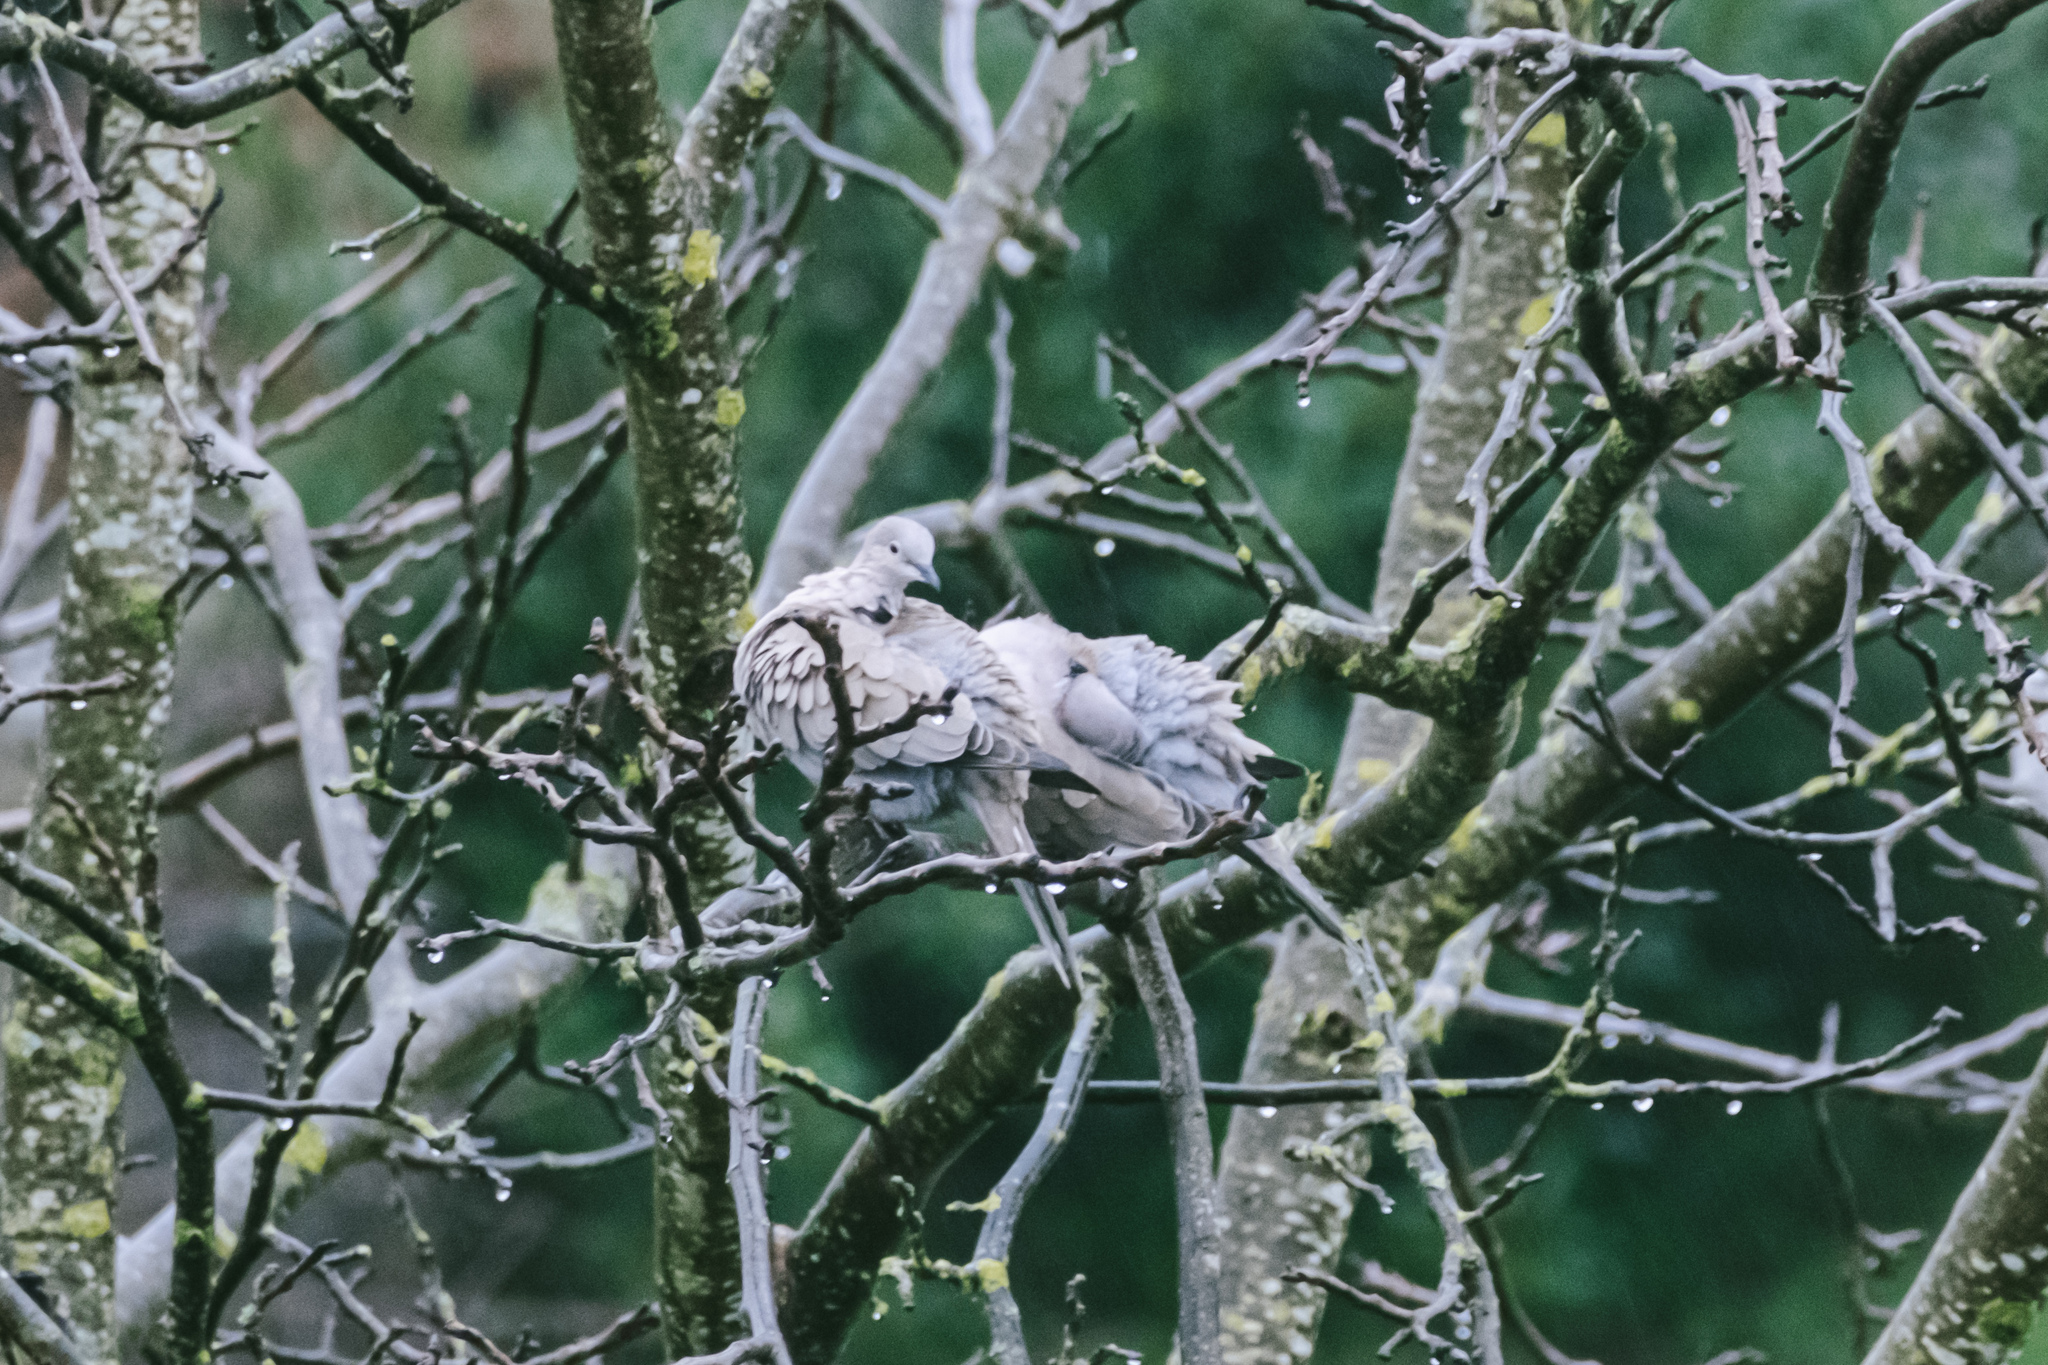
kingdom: Animalia
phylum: Chordata
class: Aves
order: Columbiformes
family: Columbidae
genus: Streptopelia
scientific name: Streptopelia decaocto
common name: Eurasian collared dove
